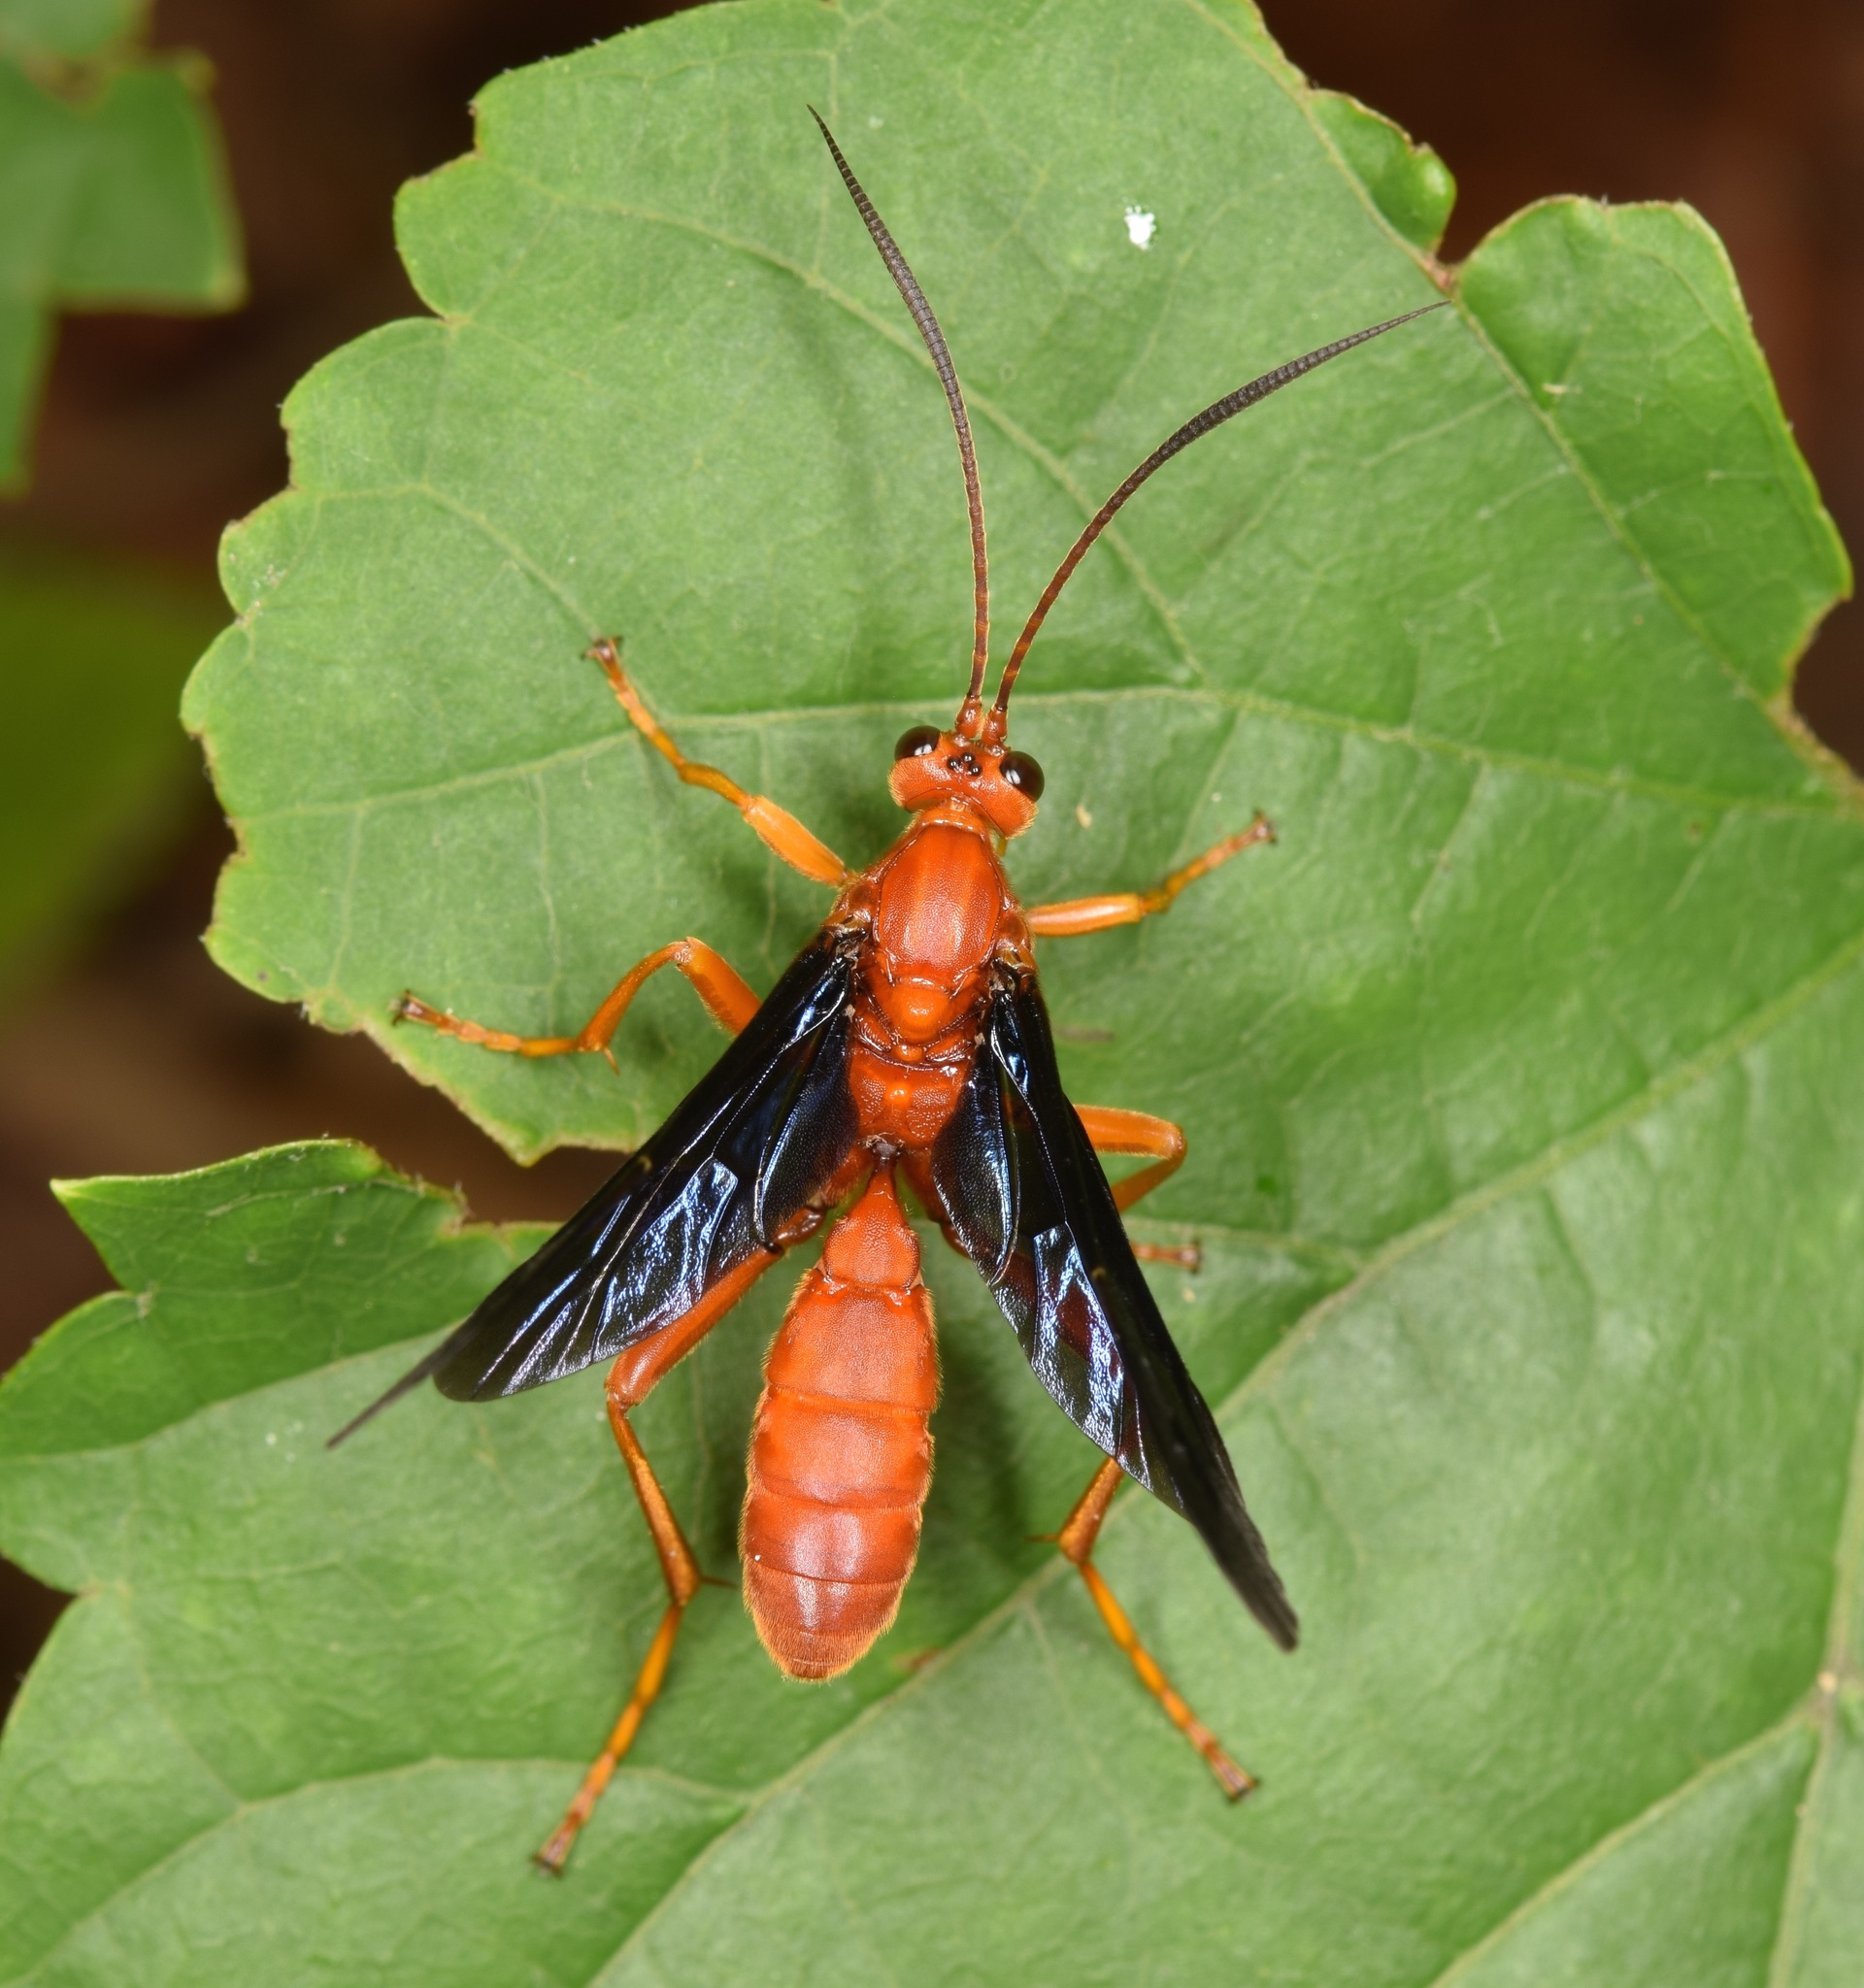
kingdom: Animalia
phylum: Arthropoda
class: Insecta
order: Hymenoptera
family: Ichneumonidae
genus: Trogus
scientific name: Trogus pennator
